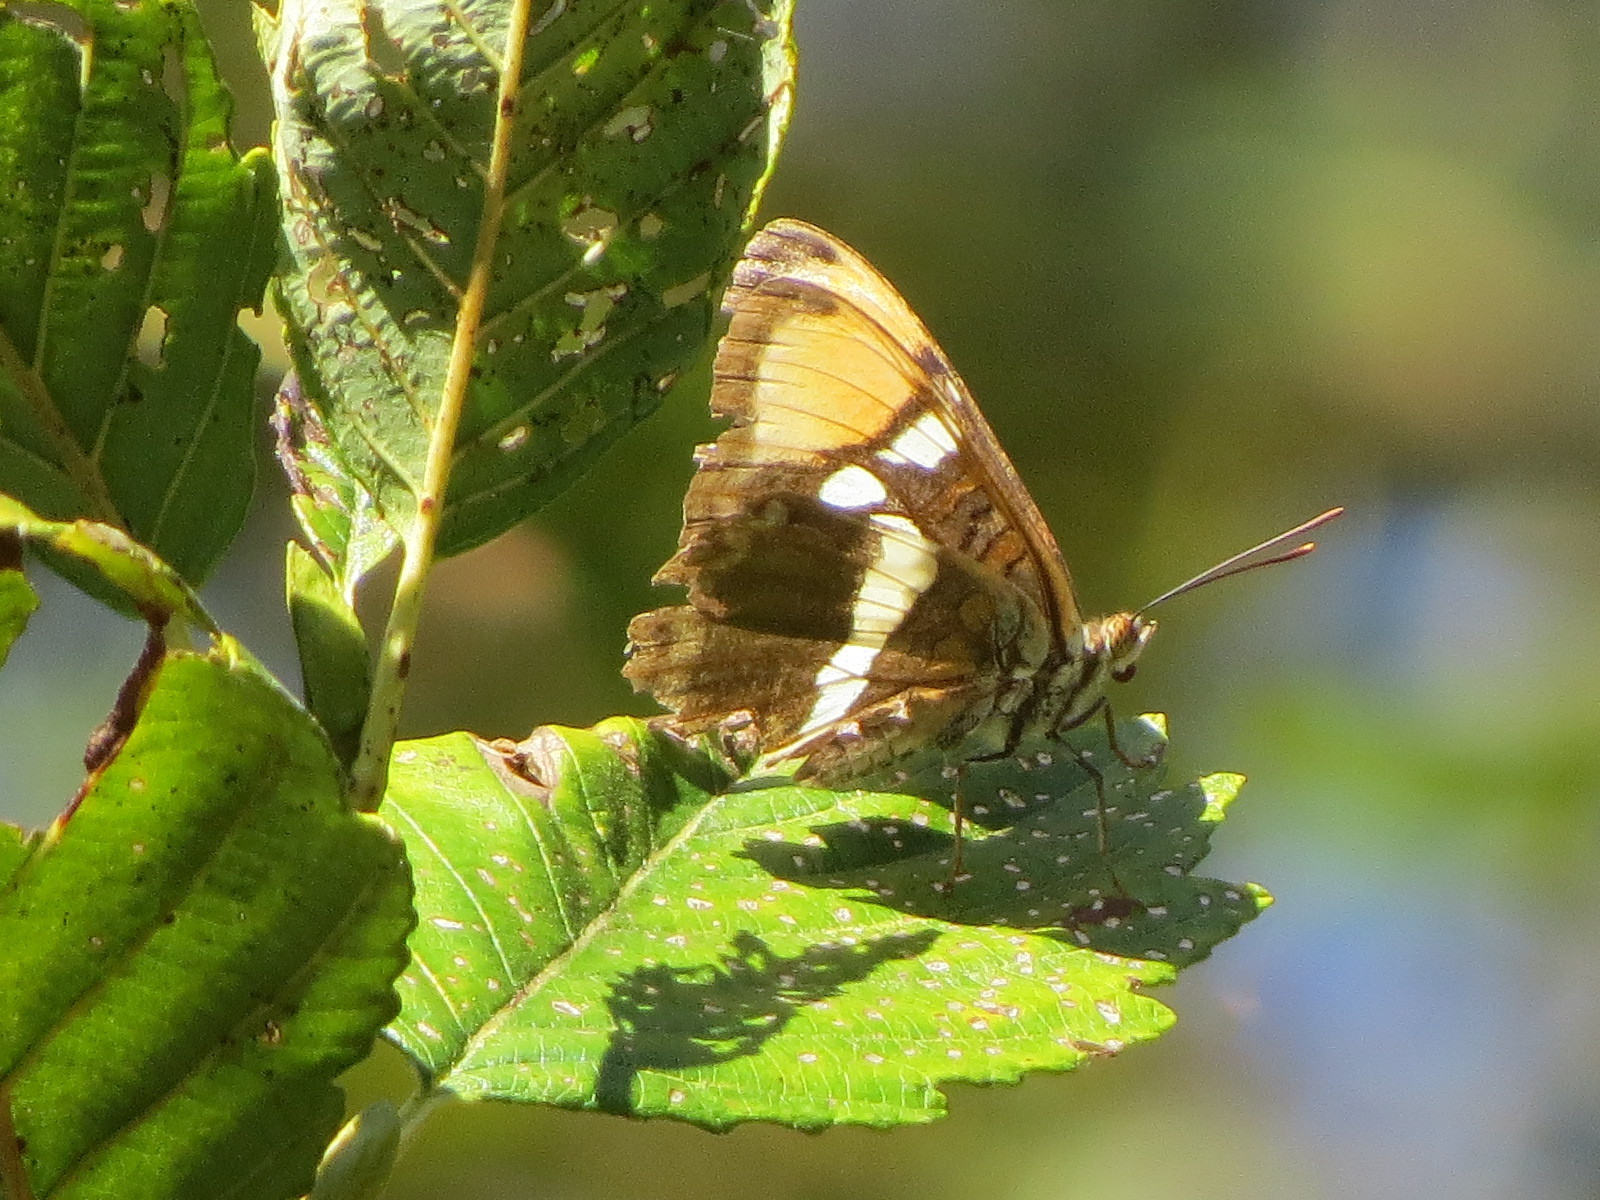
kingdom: Animalia
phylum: Arthropoda
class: Insecta
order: Lepidoptera
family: Nymphalidae
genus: Limenitis
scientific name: Limenitis bredowii
